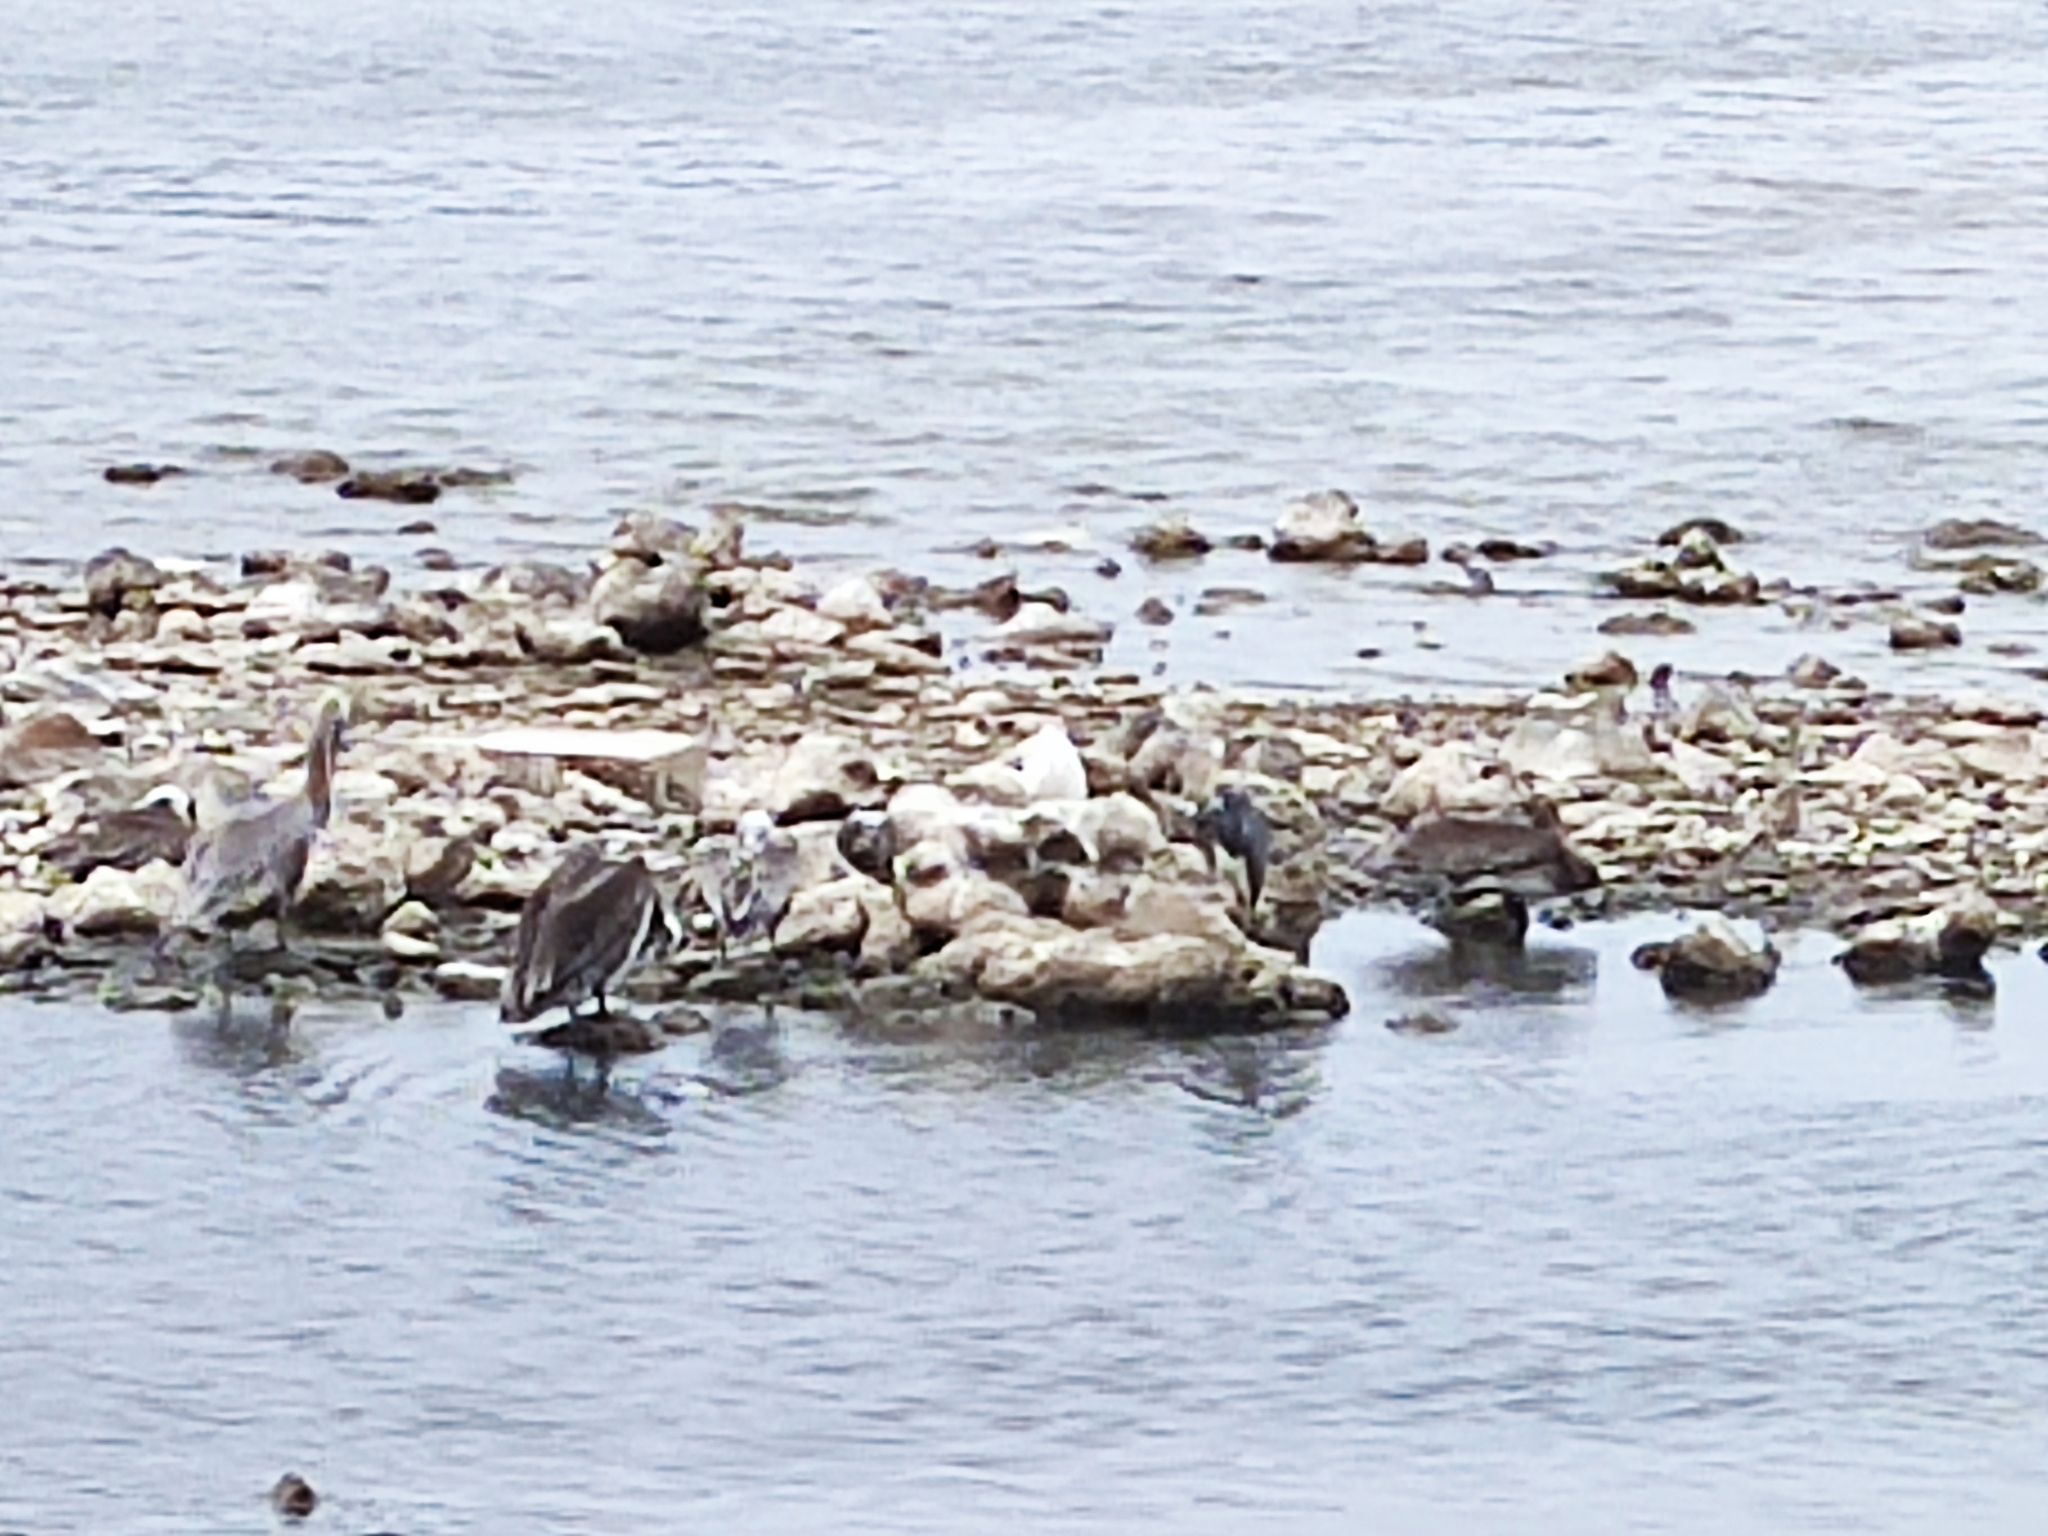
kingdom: Animalia
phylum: Chordata
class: Aves
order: Pelecaniformes
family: Pelecanidae
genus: Pelecanus
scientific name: Pelecanus occidentalis
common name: Brown pelican
